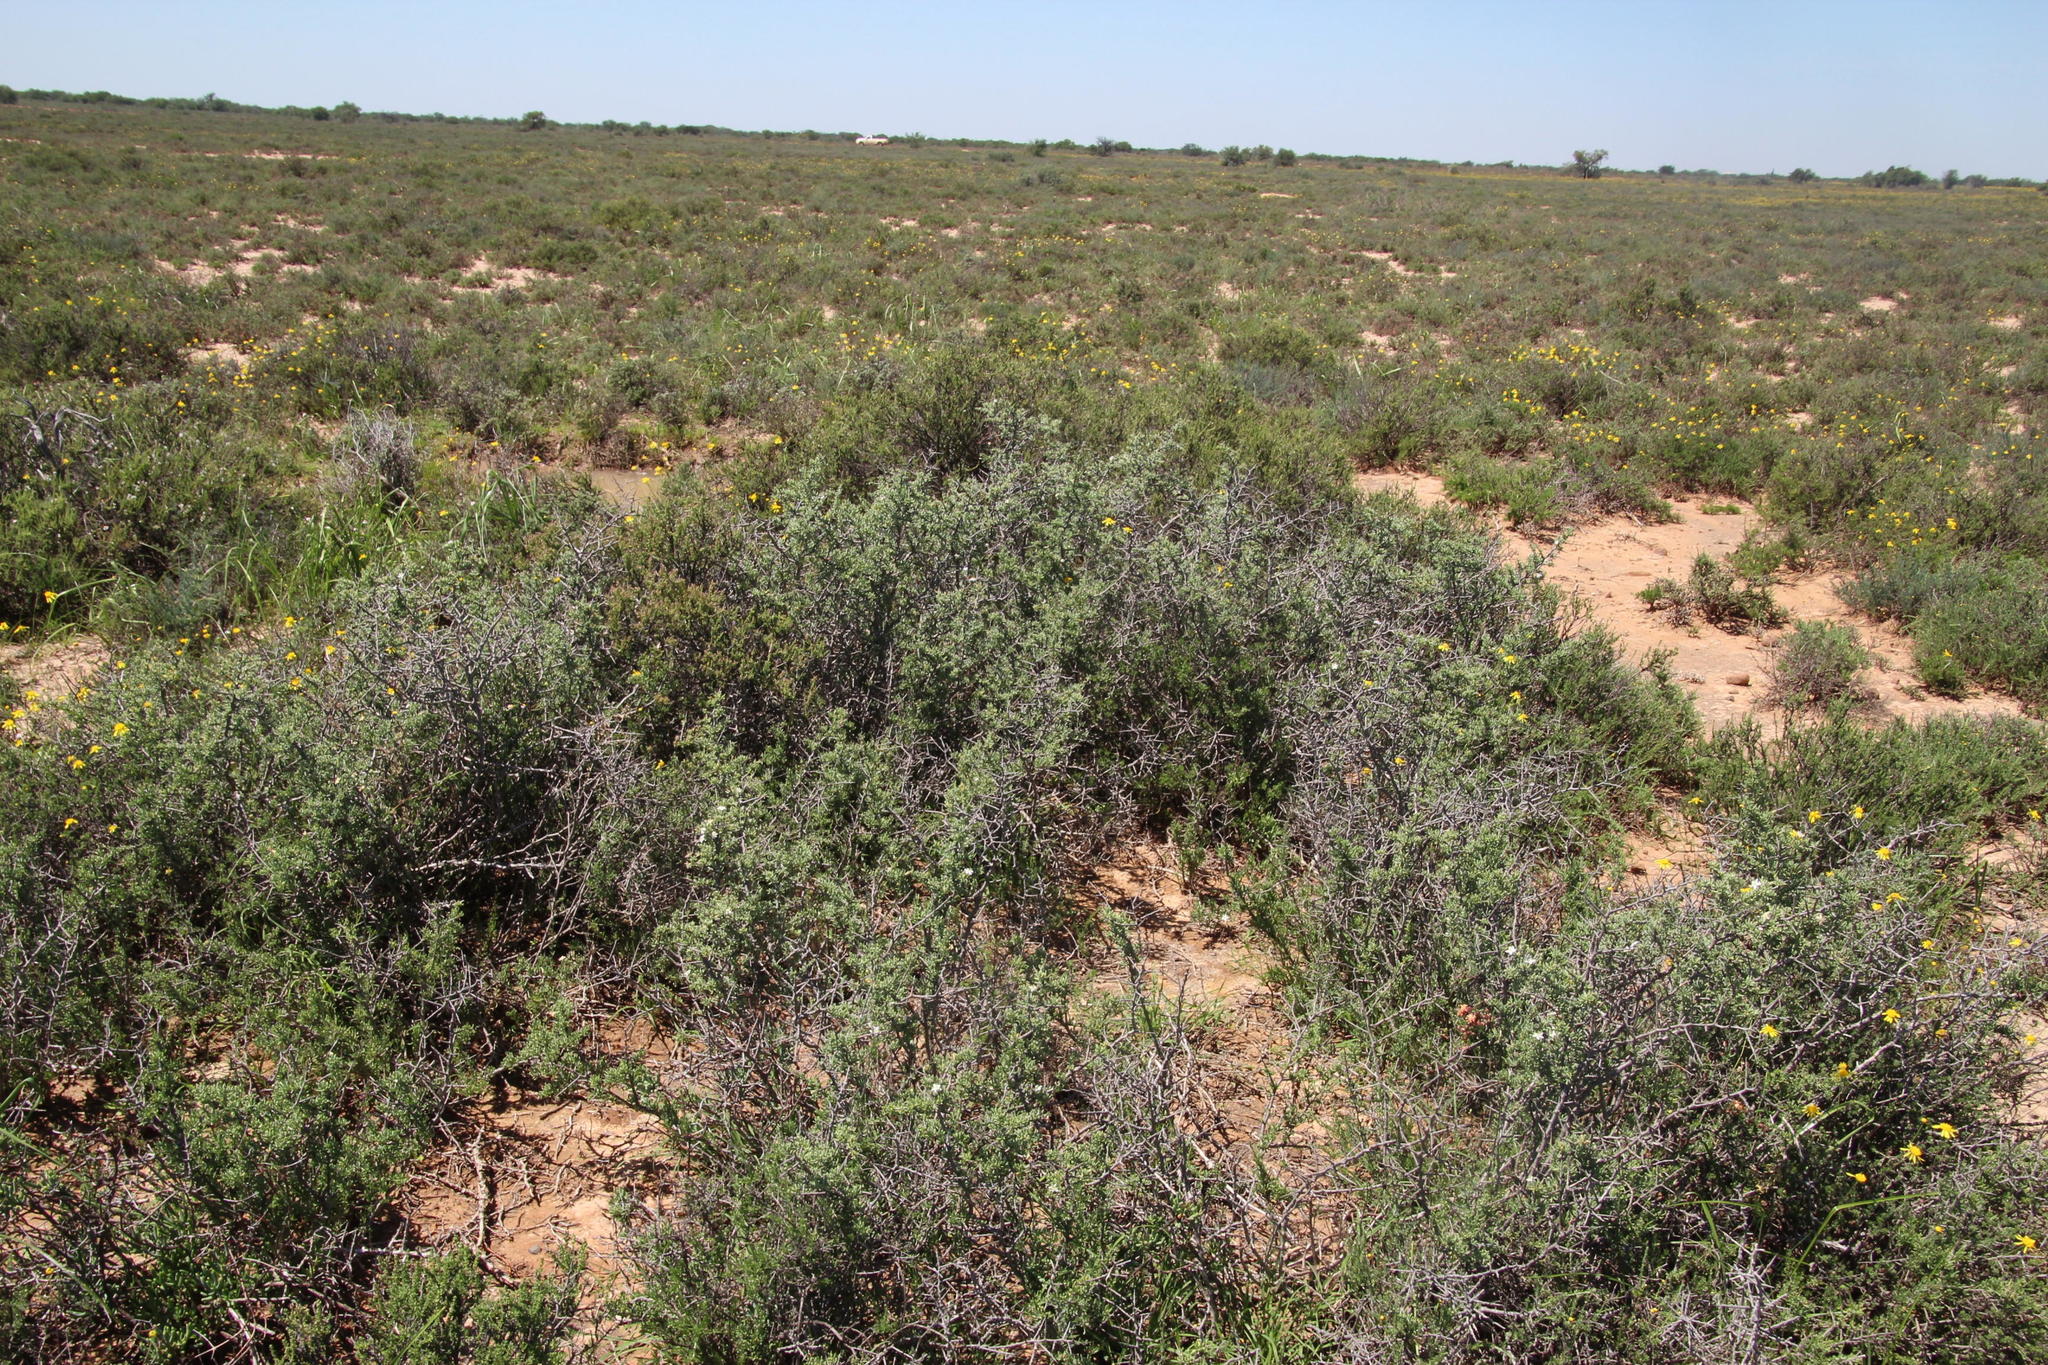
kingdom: Plantae
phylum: Tracheophyta
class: Magnoliopsida
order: Solanales
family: Solanaceae
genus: Lycium
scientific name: Lycium pumilum
